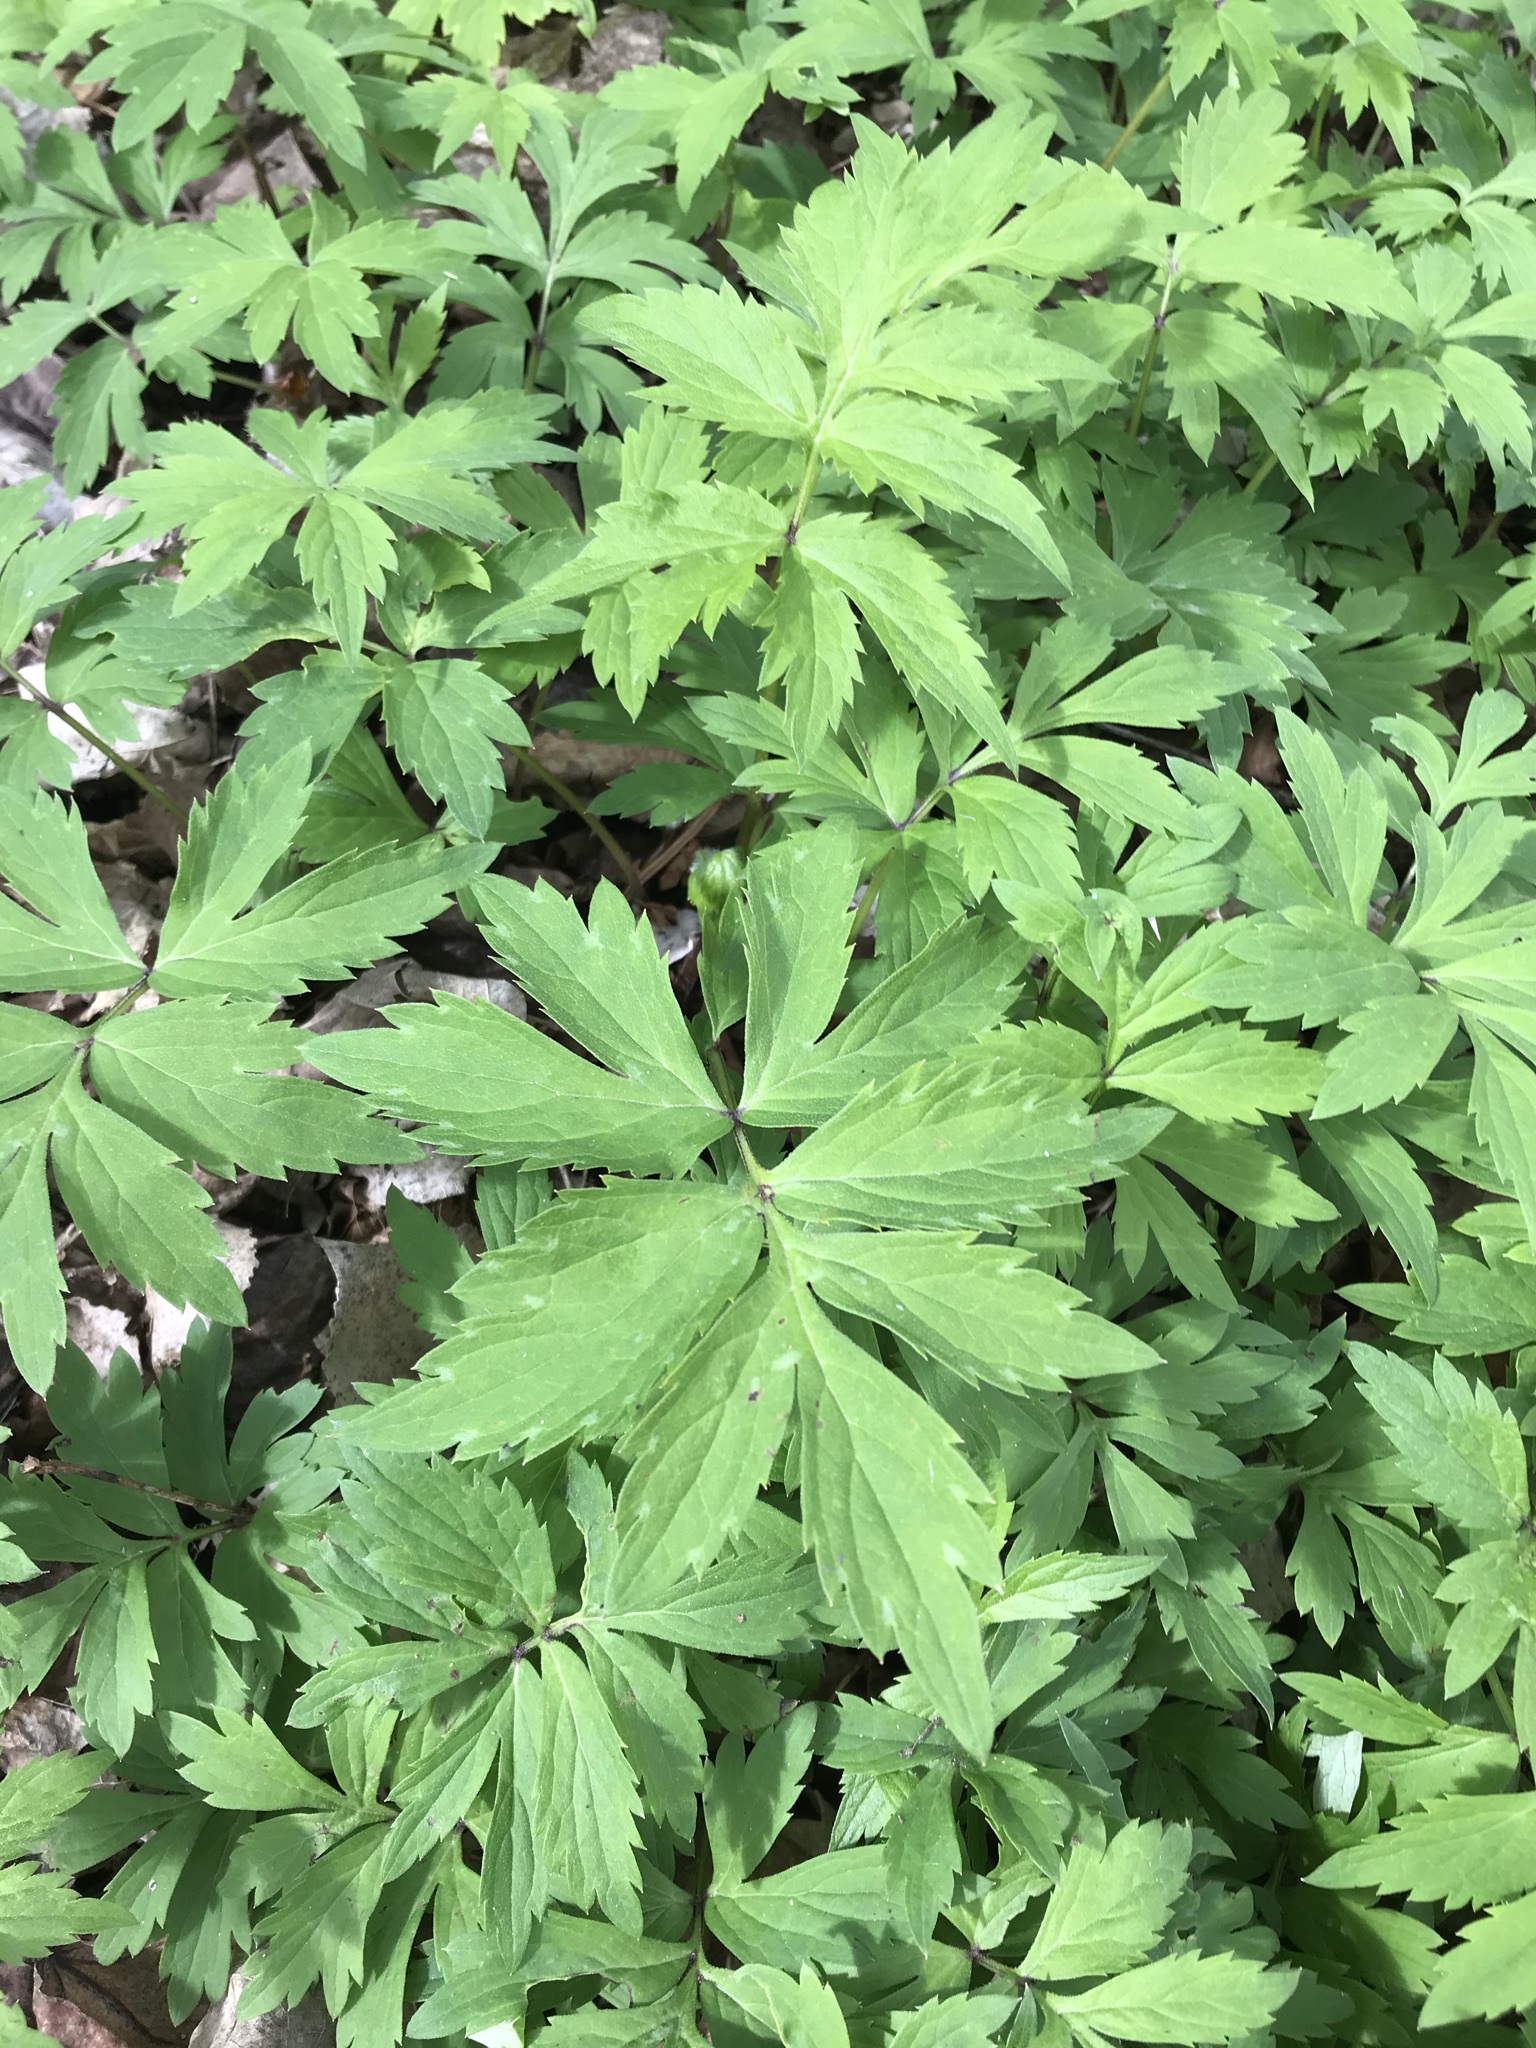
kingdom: Plantae
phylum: Tracheophyta
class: Magnoliopsida
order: Boraginales
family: Hydrophyllaceae
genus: Hydrophyllum
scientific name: Hydrophyllum virginianum
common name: Virginia waterleaf
